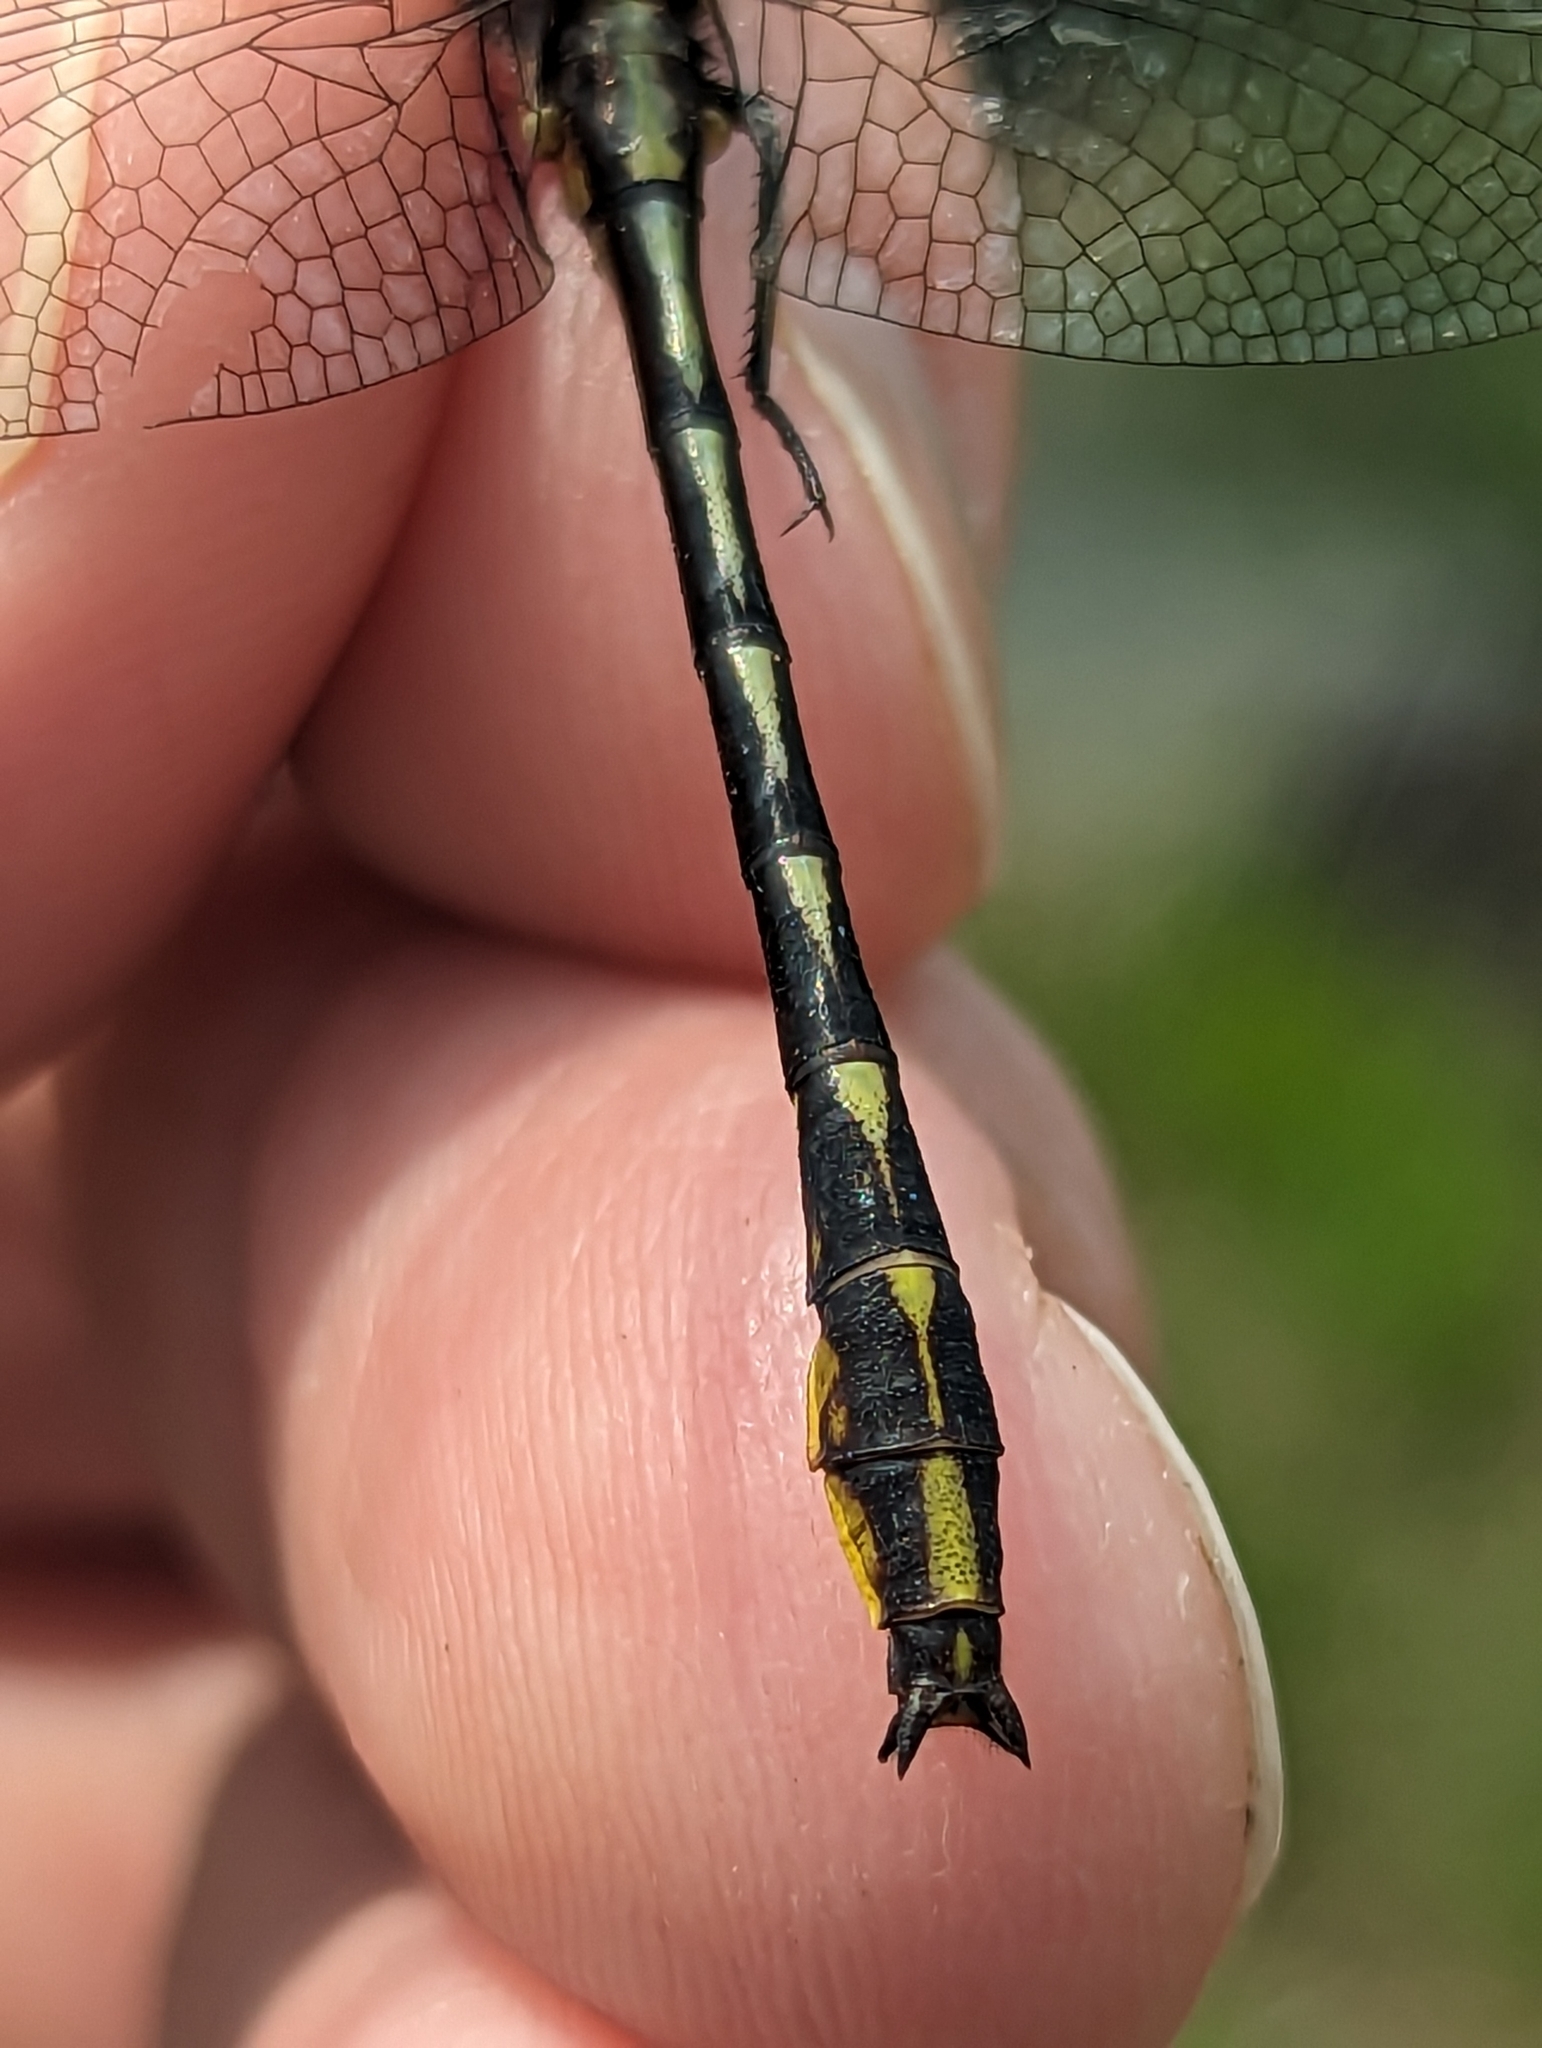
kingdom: Animalia
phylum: Arthropoda
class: Insecta
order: Odonata
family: Gomphidae
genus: Phanogomphus
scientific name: Phanogomphus exilis
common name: Lancet clubtail
